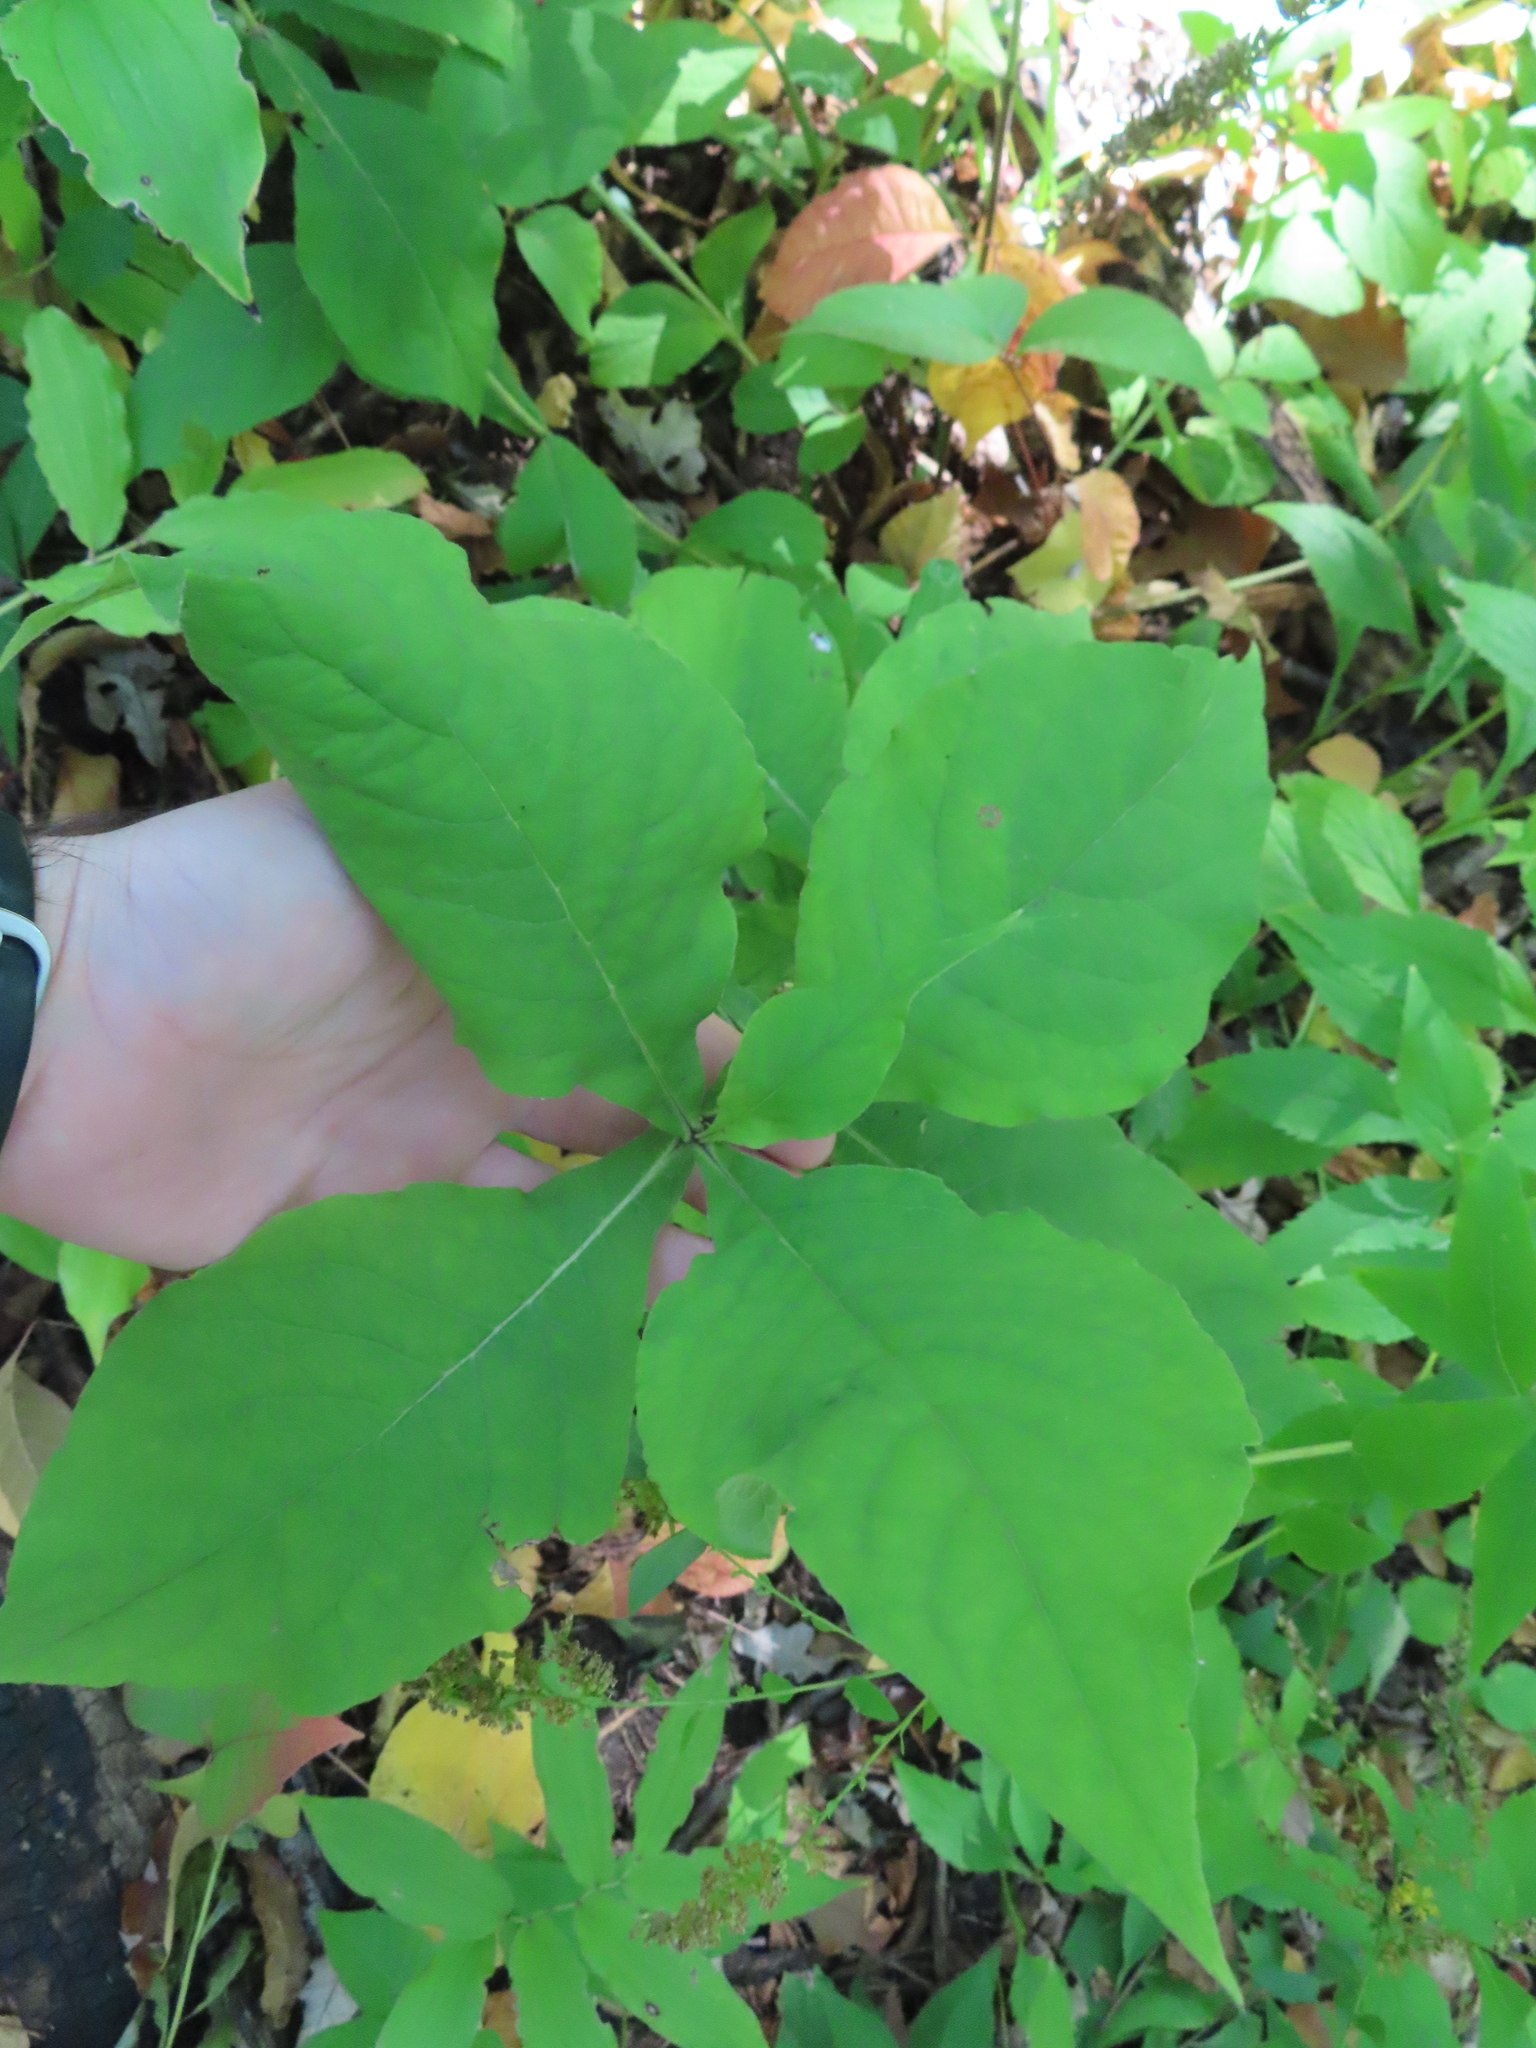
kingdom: Plantae
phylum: Tracheophyta
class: Magnoliopsida
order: Dipsacales
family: Caprifoliaceae
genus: Triosteum
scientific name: Triosteum aurantiacum
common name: Coffee tinker's-weed
